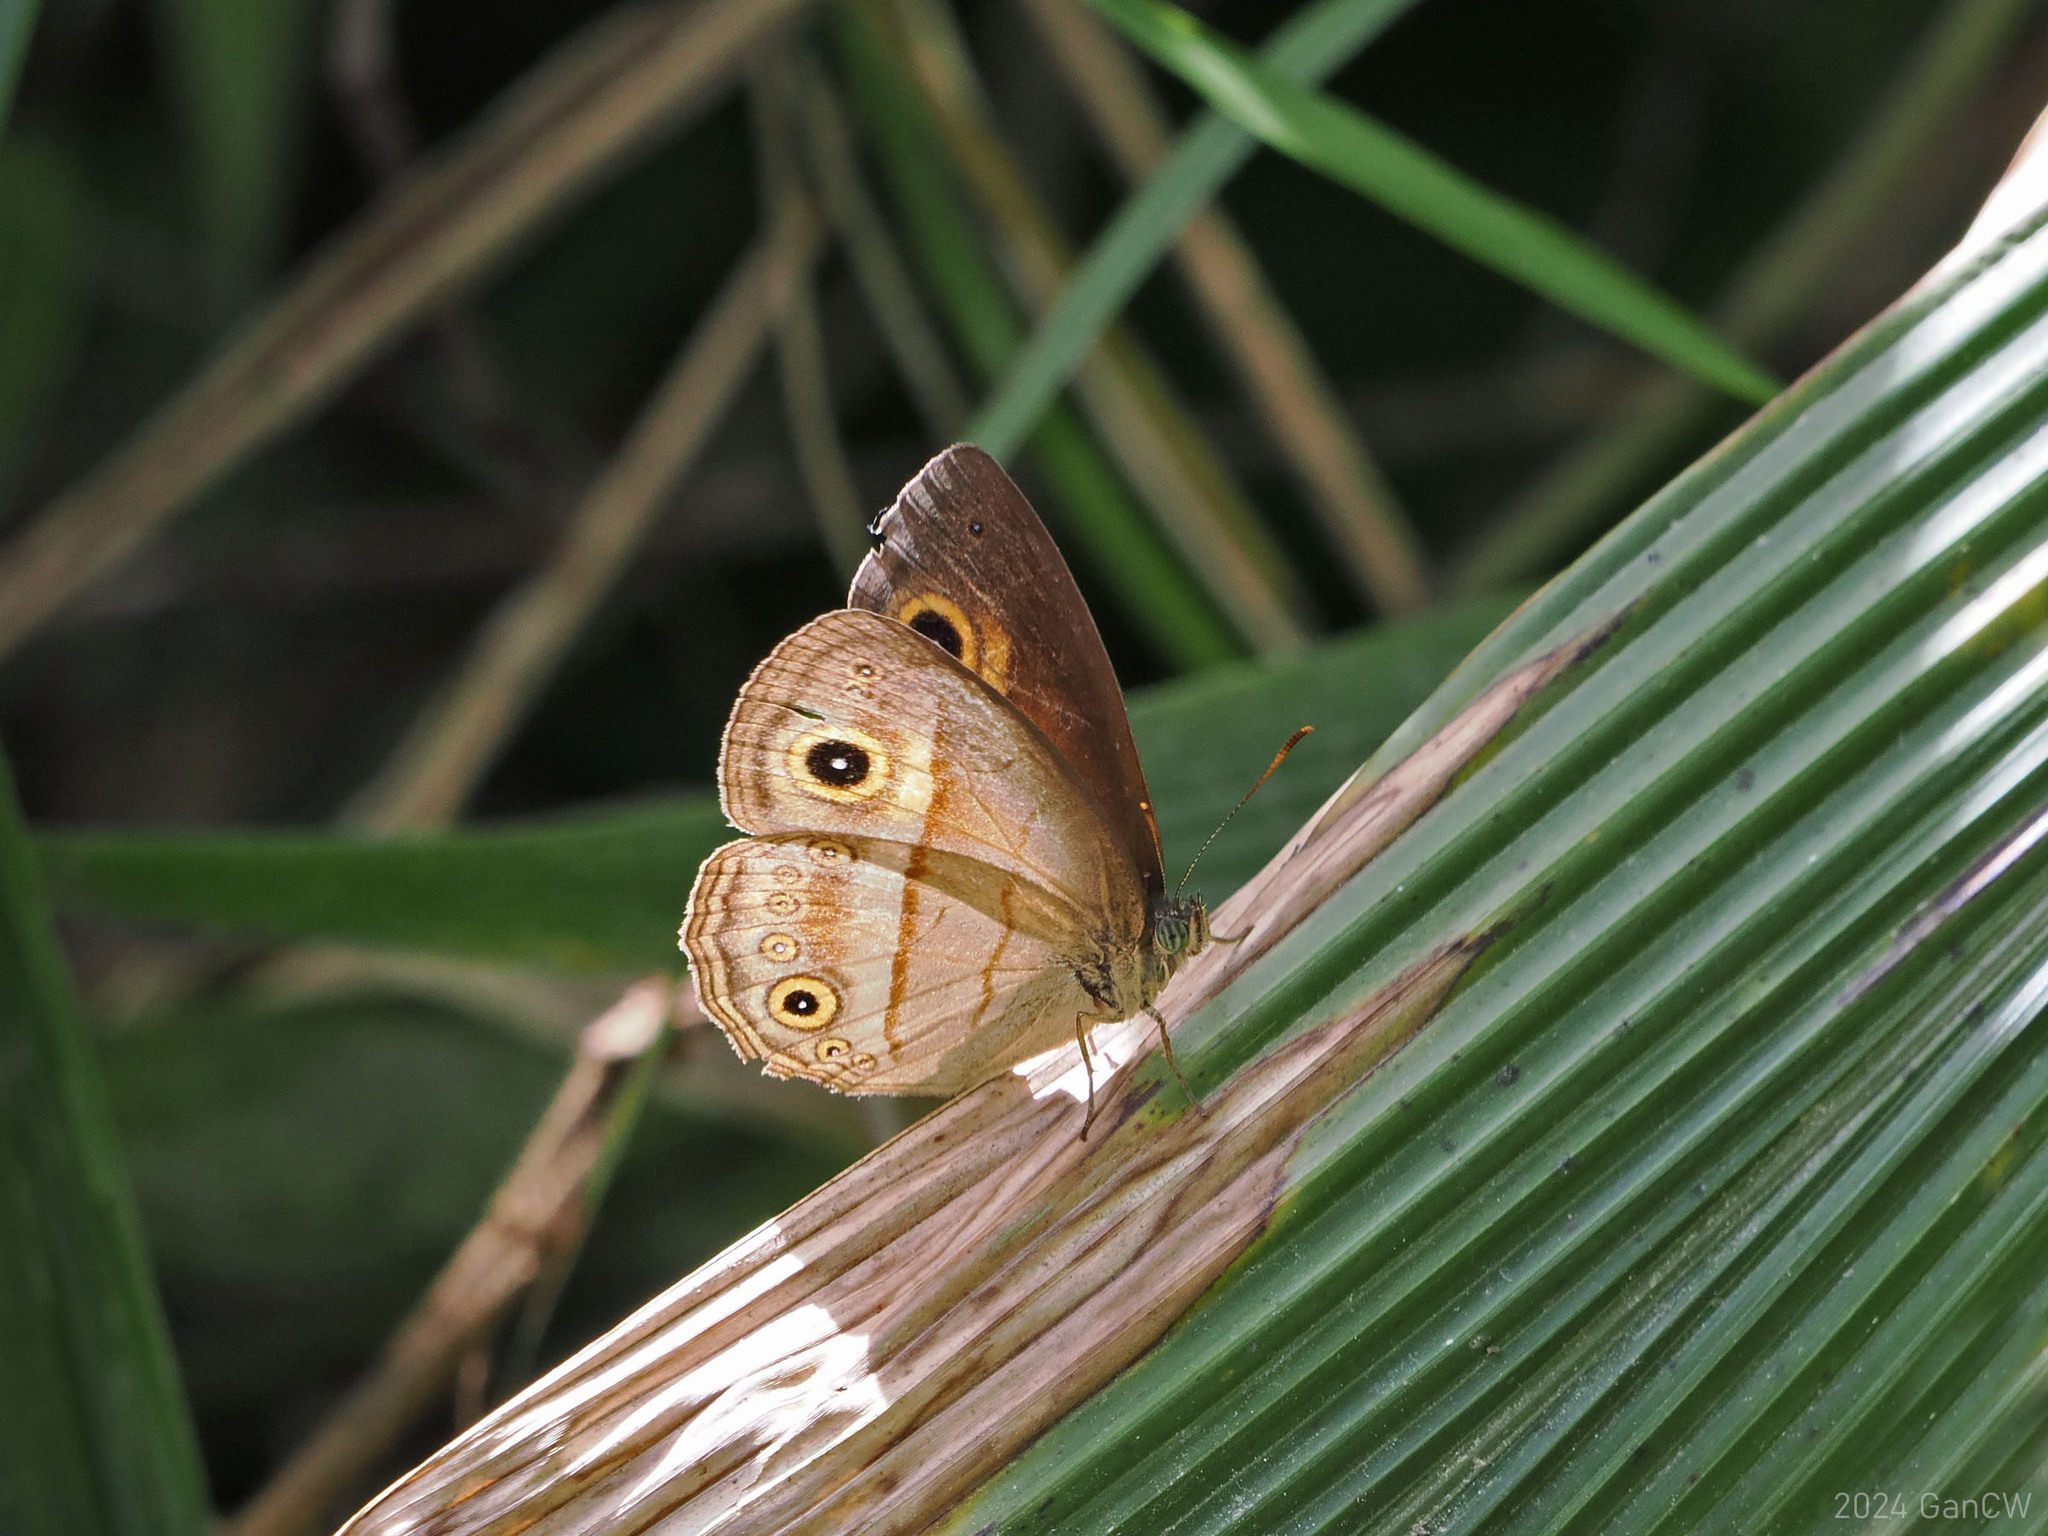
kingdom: Animalia
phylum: Arthropoda
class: Insecta
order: Lepidoptera
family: Nymphalidae
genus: Mycalesis
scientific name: Mycalesis ita
